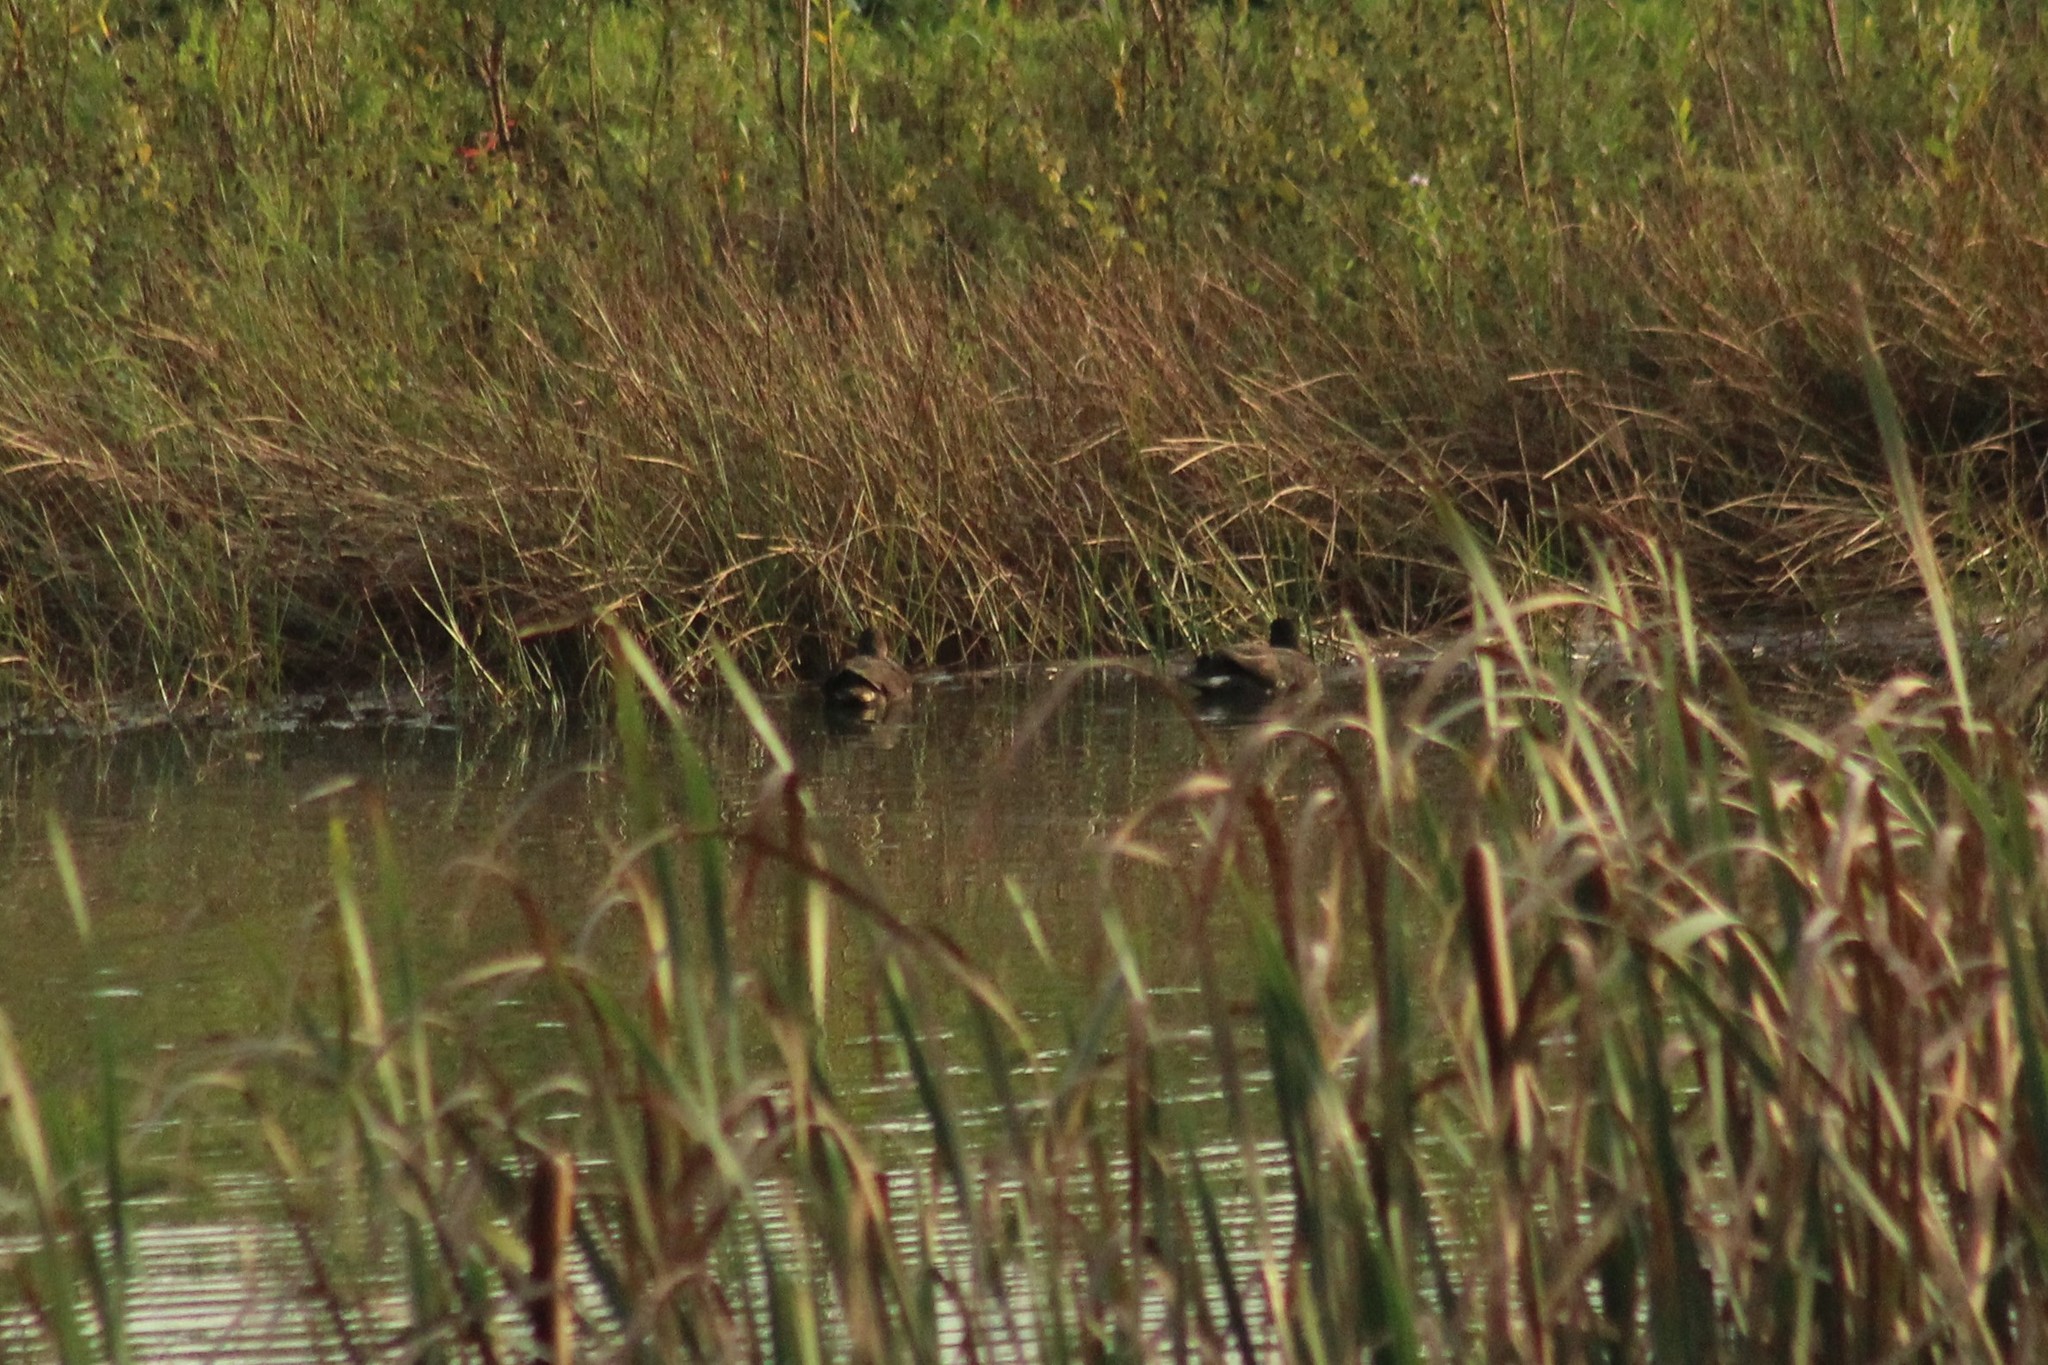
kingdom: Animalia
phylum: Chordata
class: Aves
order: Gruiformes
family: Rallidae
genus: Gallinula
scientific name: Gallinula chloropus
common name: Common moorhen
